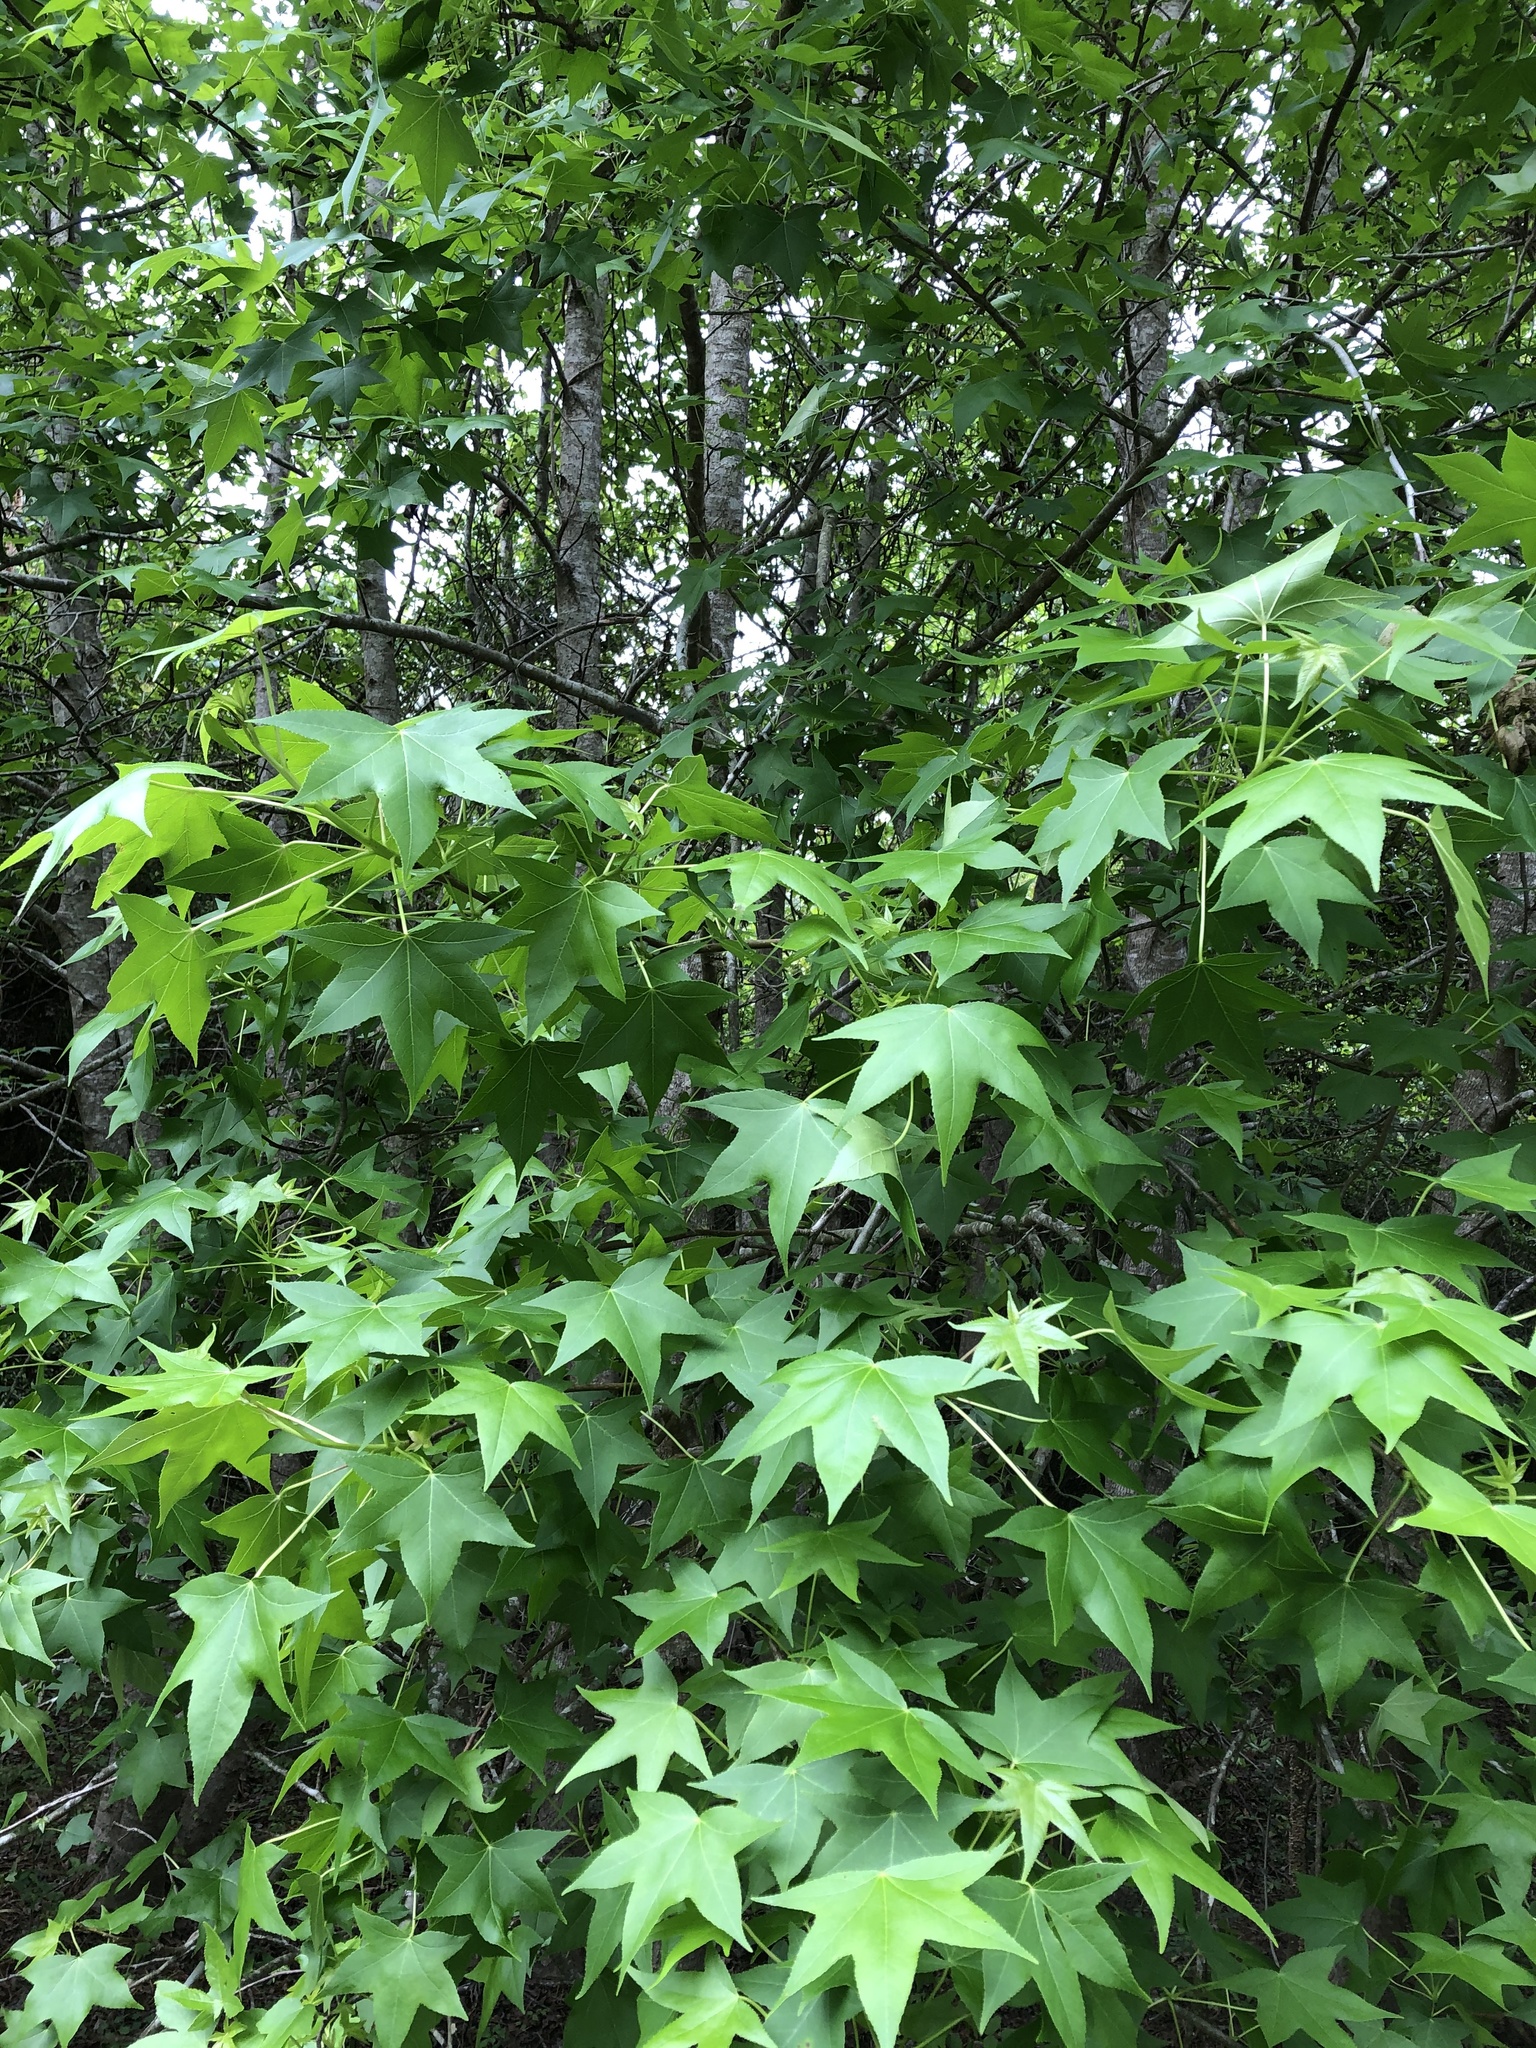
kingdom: Plantae
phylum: Tracheophyta
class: Magnoliopsida
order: Saxifragales
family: Altingiaceae
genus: Liquidambar
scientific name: Liquidambar styraciflua
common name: Sweet gum
